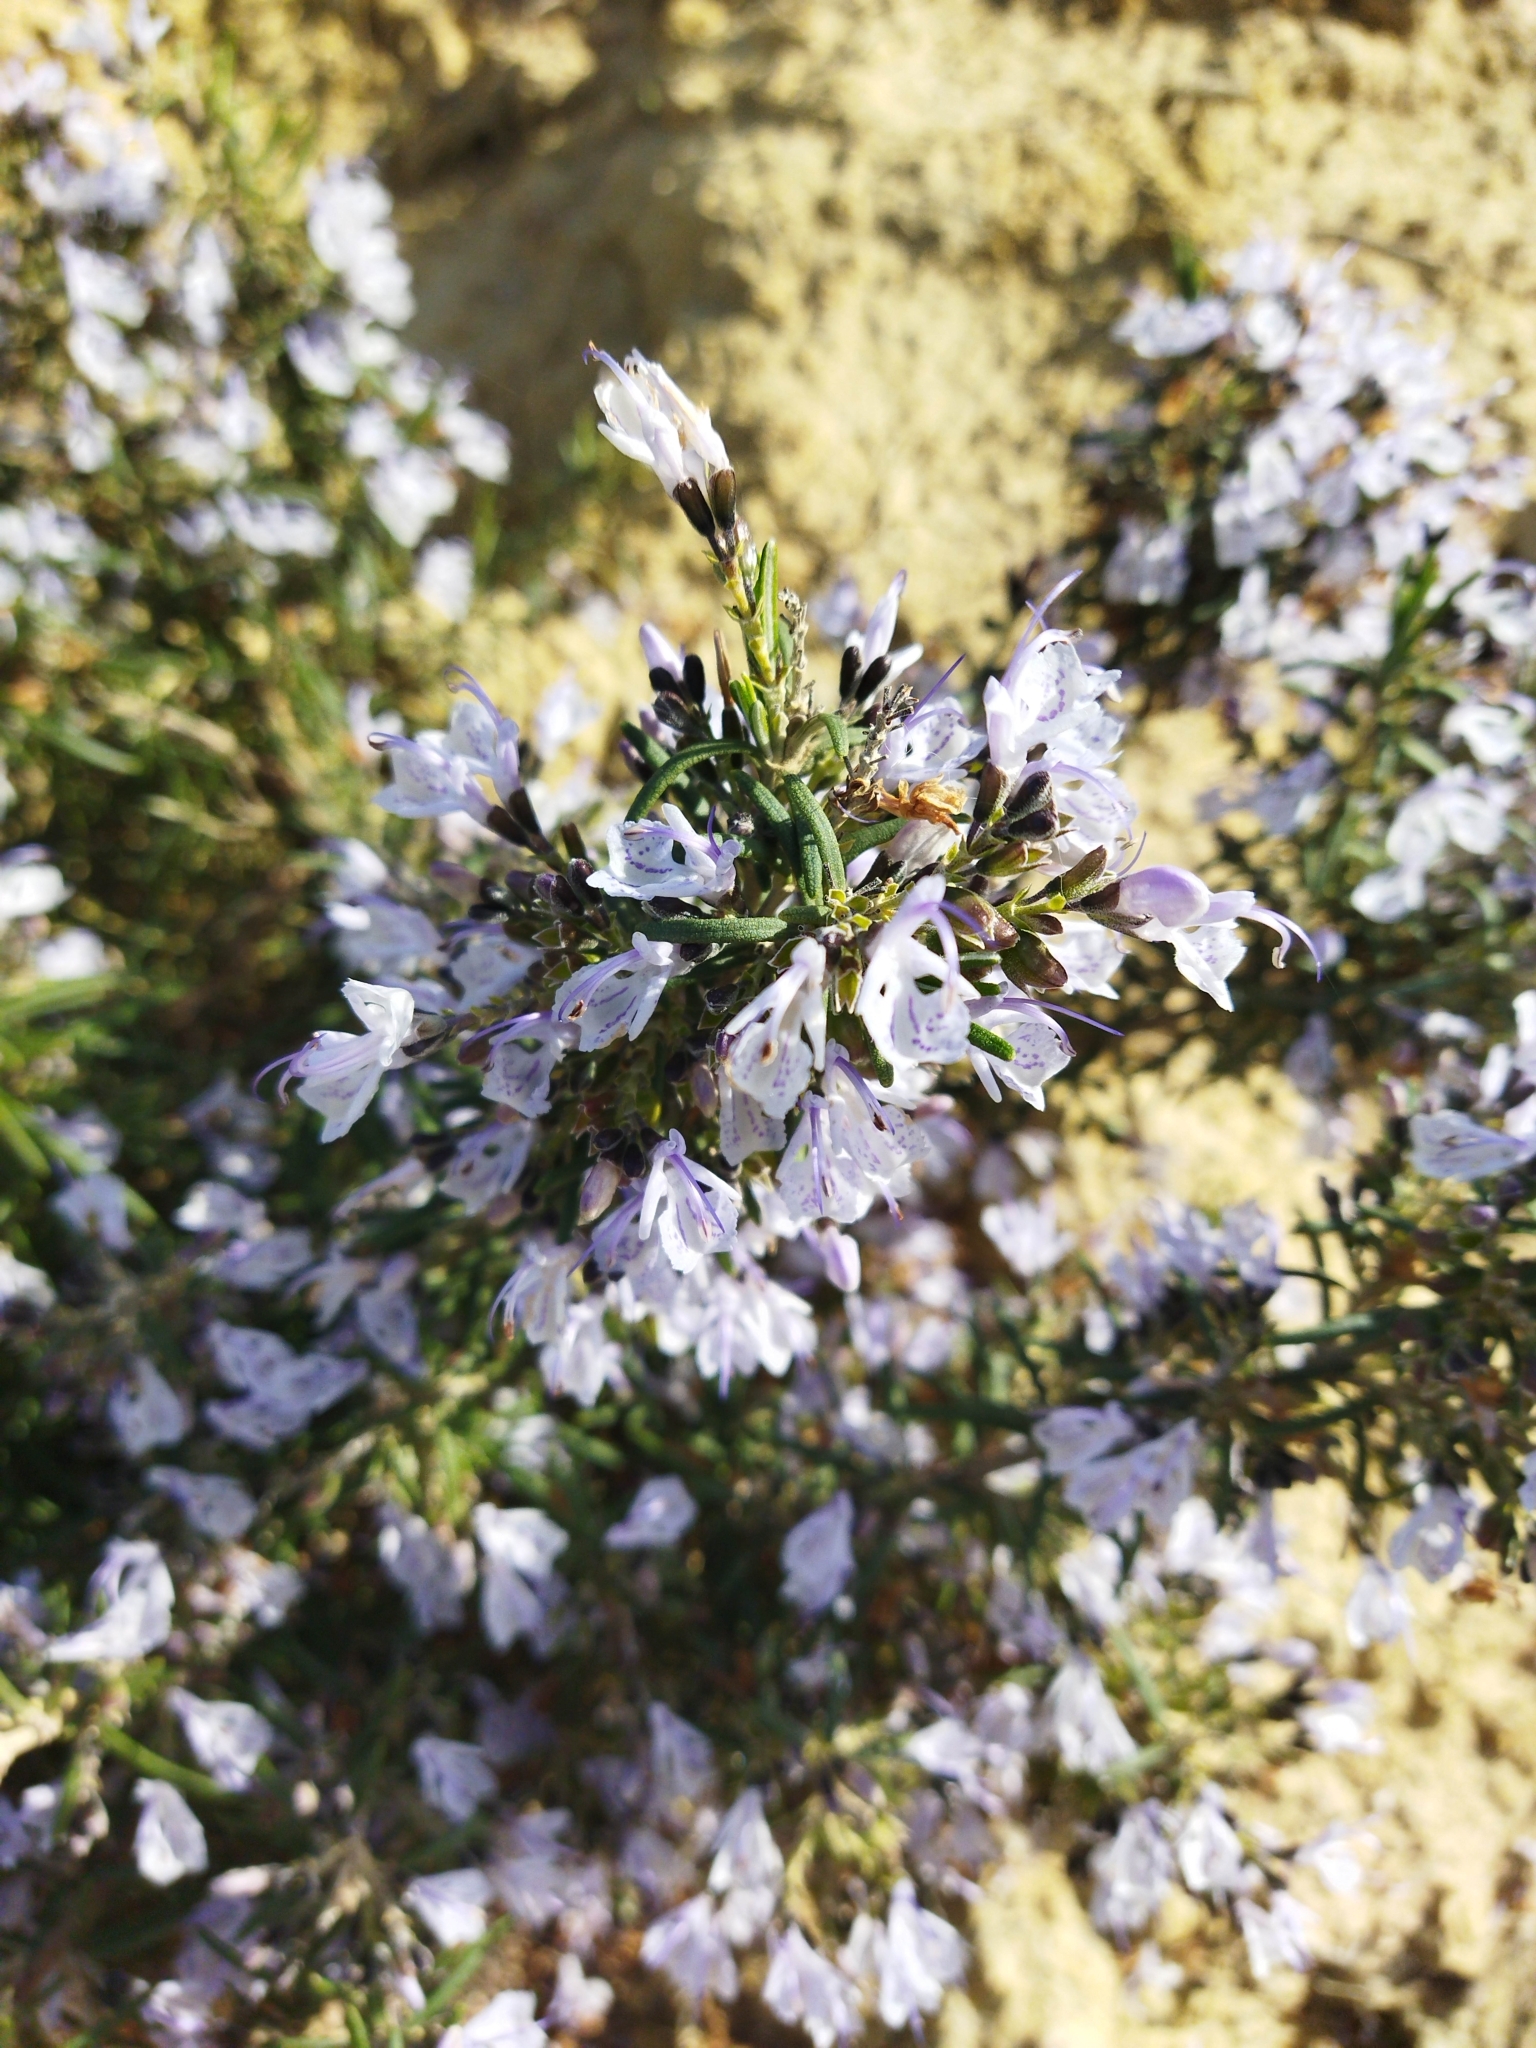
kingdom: Plantae
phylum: Tracheophyta
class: Magnoliopsida
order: Lamiales
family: Lamiaceae
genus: Salvia
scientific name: Salvia rosmarinus
